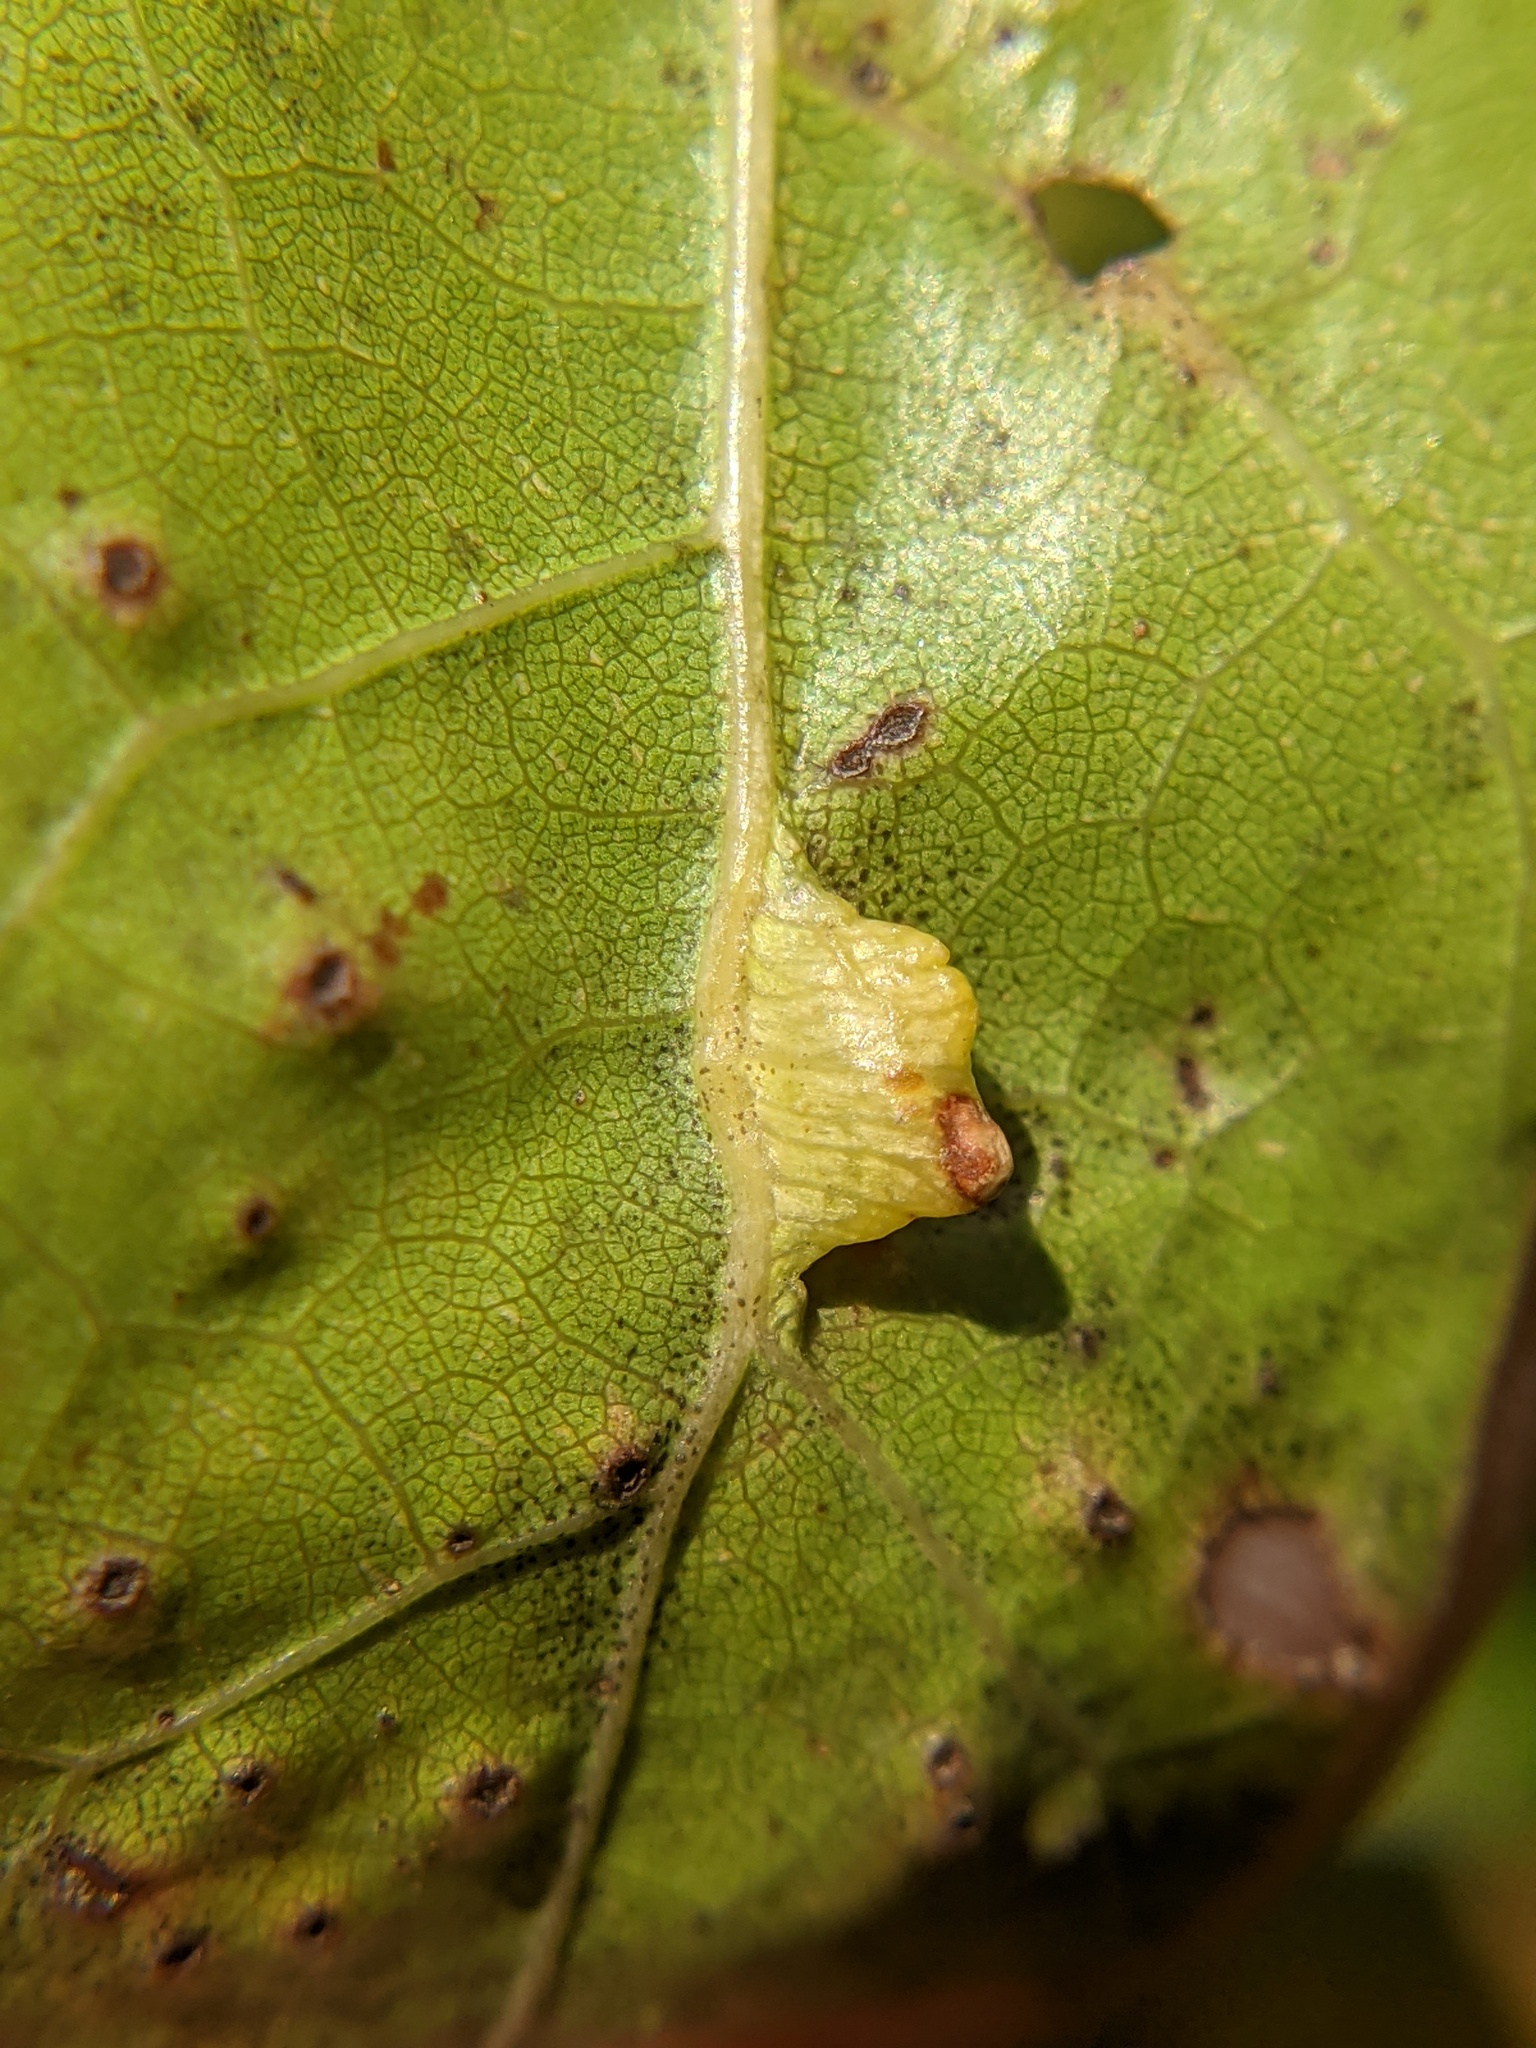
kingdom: Animalia
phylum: Arthropoda
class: Insecta
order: Diptera
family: Cecidomyiidae
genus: Macrodiplosis
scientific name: Macrodiplosis majalis
